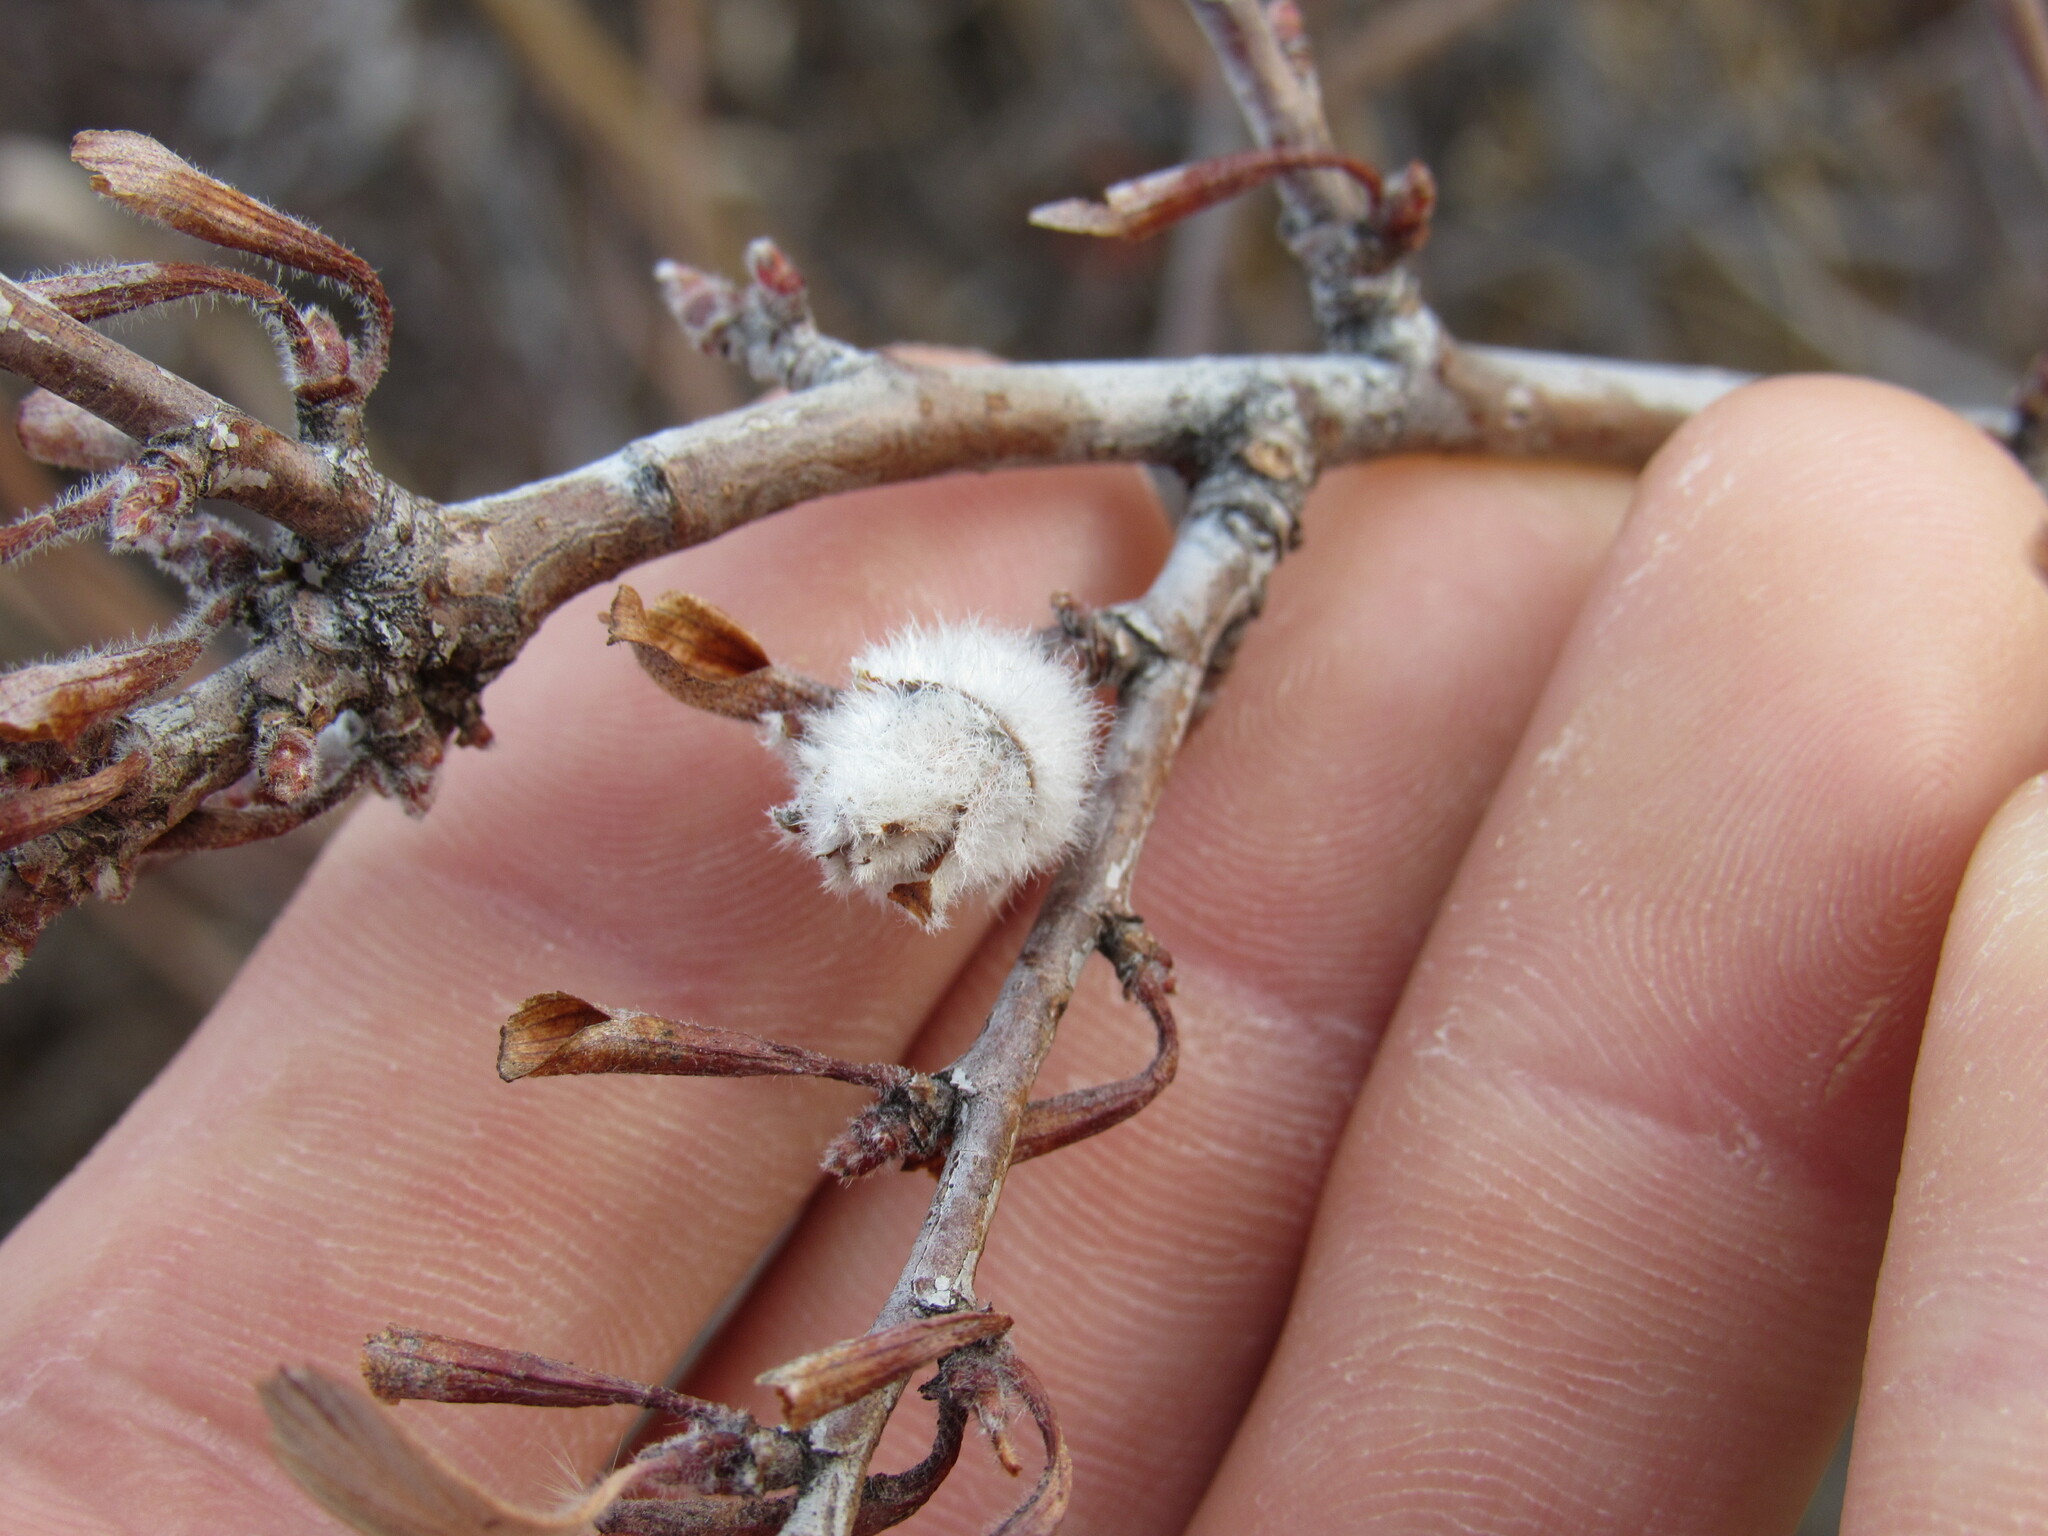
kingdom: Animalia
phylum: Arthropoda
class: Insecta
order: Diptera
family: Cecidomyiidae
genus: Dasineura
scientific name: Dasineura cercocarpi
